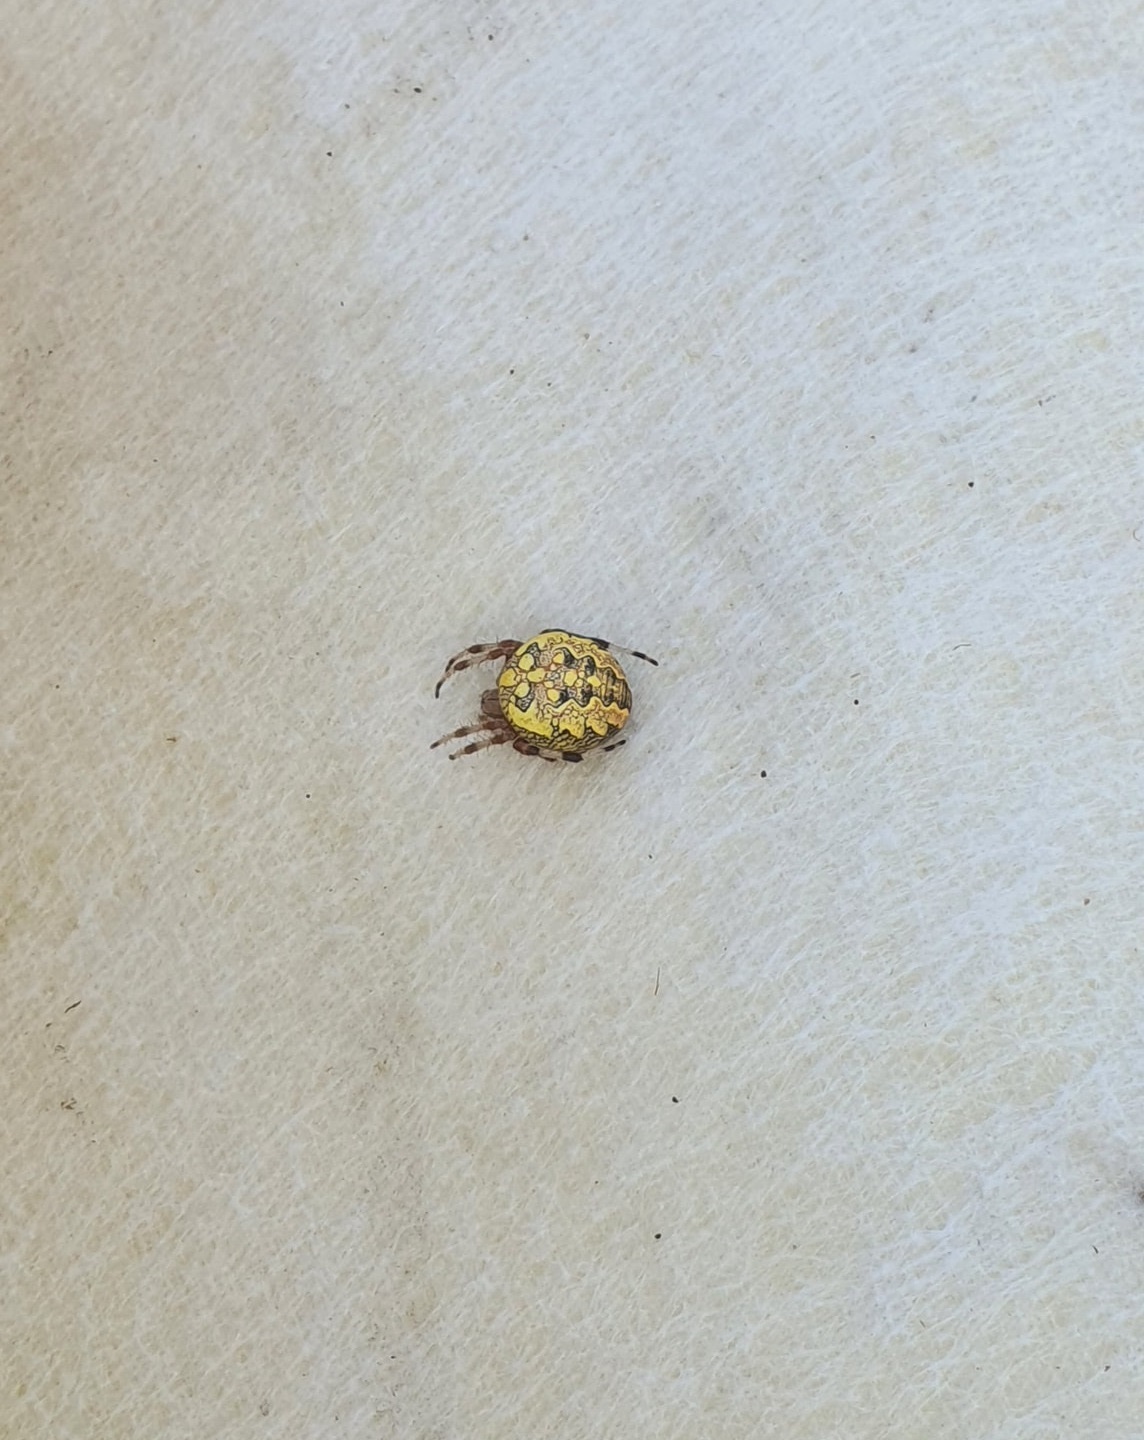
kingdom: Animalia
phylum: Arthropoda
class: Arachnida
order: Araneae
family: Araneidae
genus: Araneus
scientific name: Araneus marmoreus
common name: Marbled orbweaver
